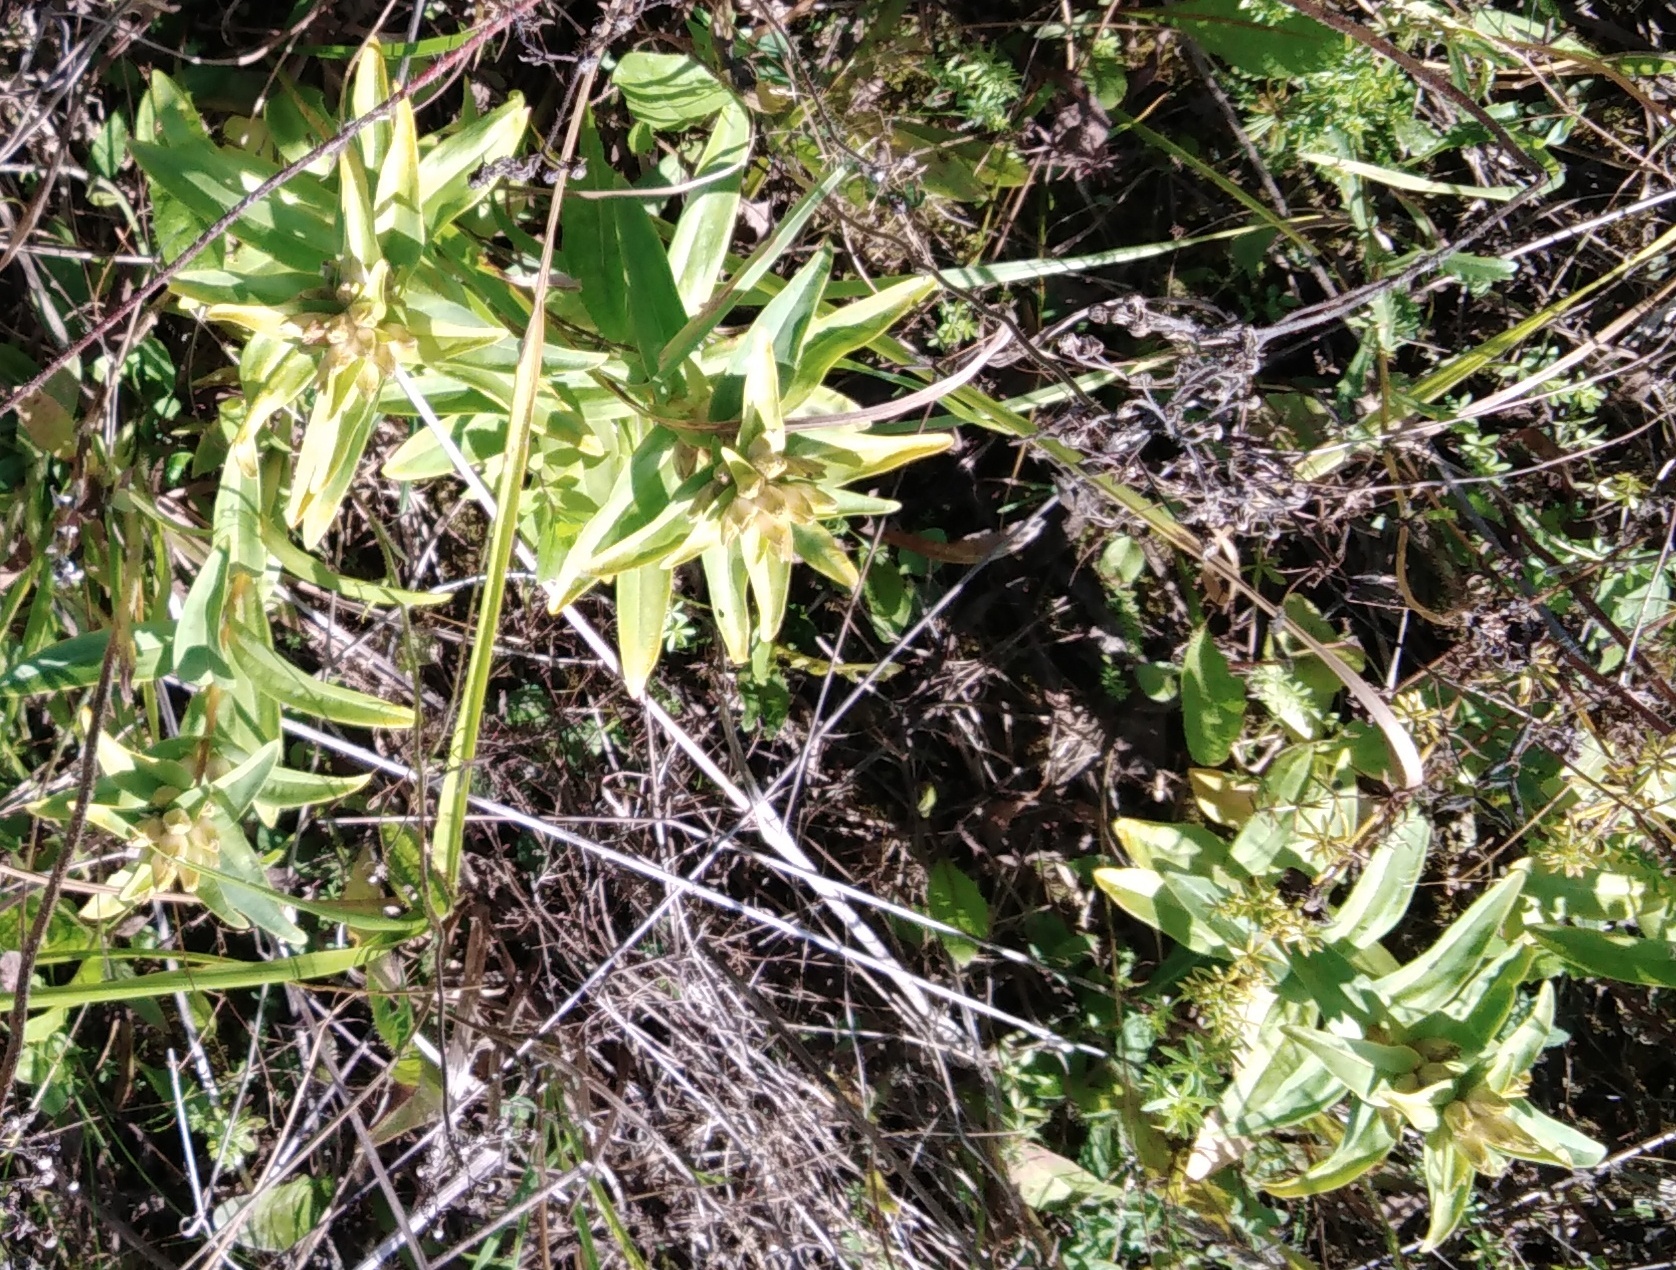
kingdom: Plantae
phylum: Tracheophyta
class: Magnoliopsida
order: Gentianales
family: Gentianaceae
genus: Gentiana
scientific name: Gentiana cruciata
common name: Cross gentian
